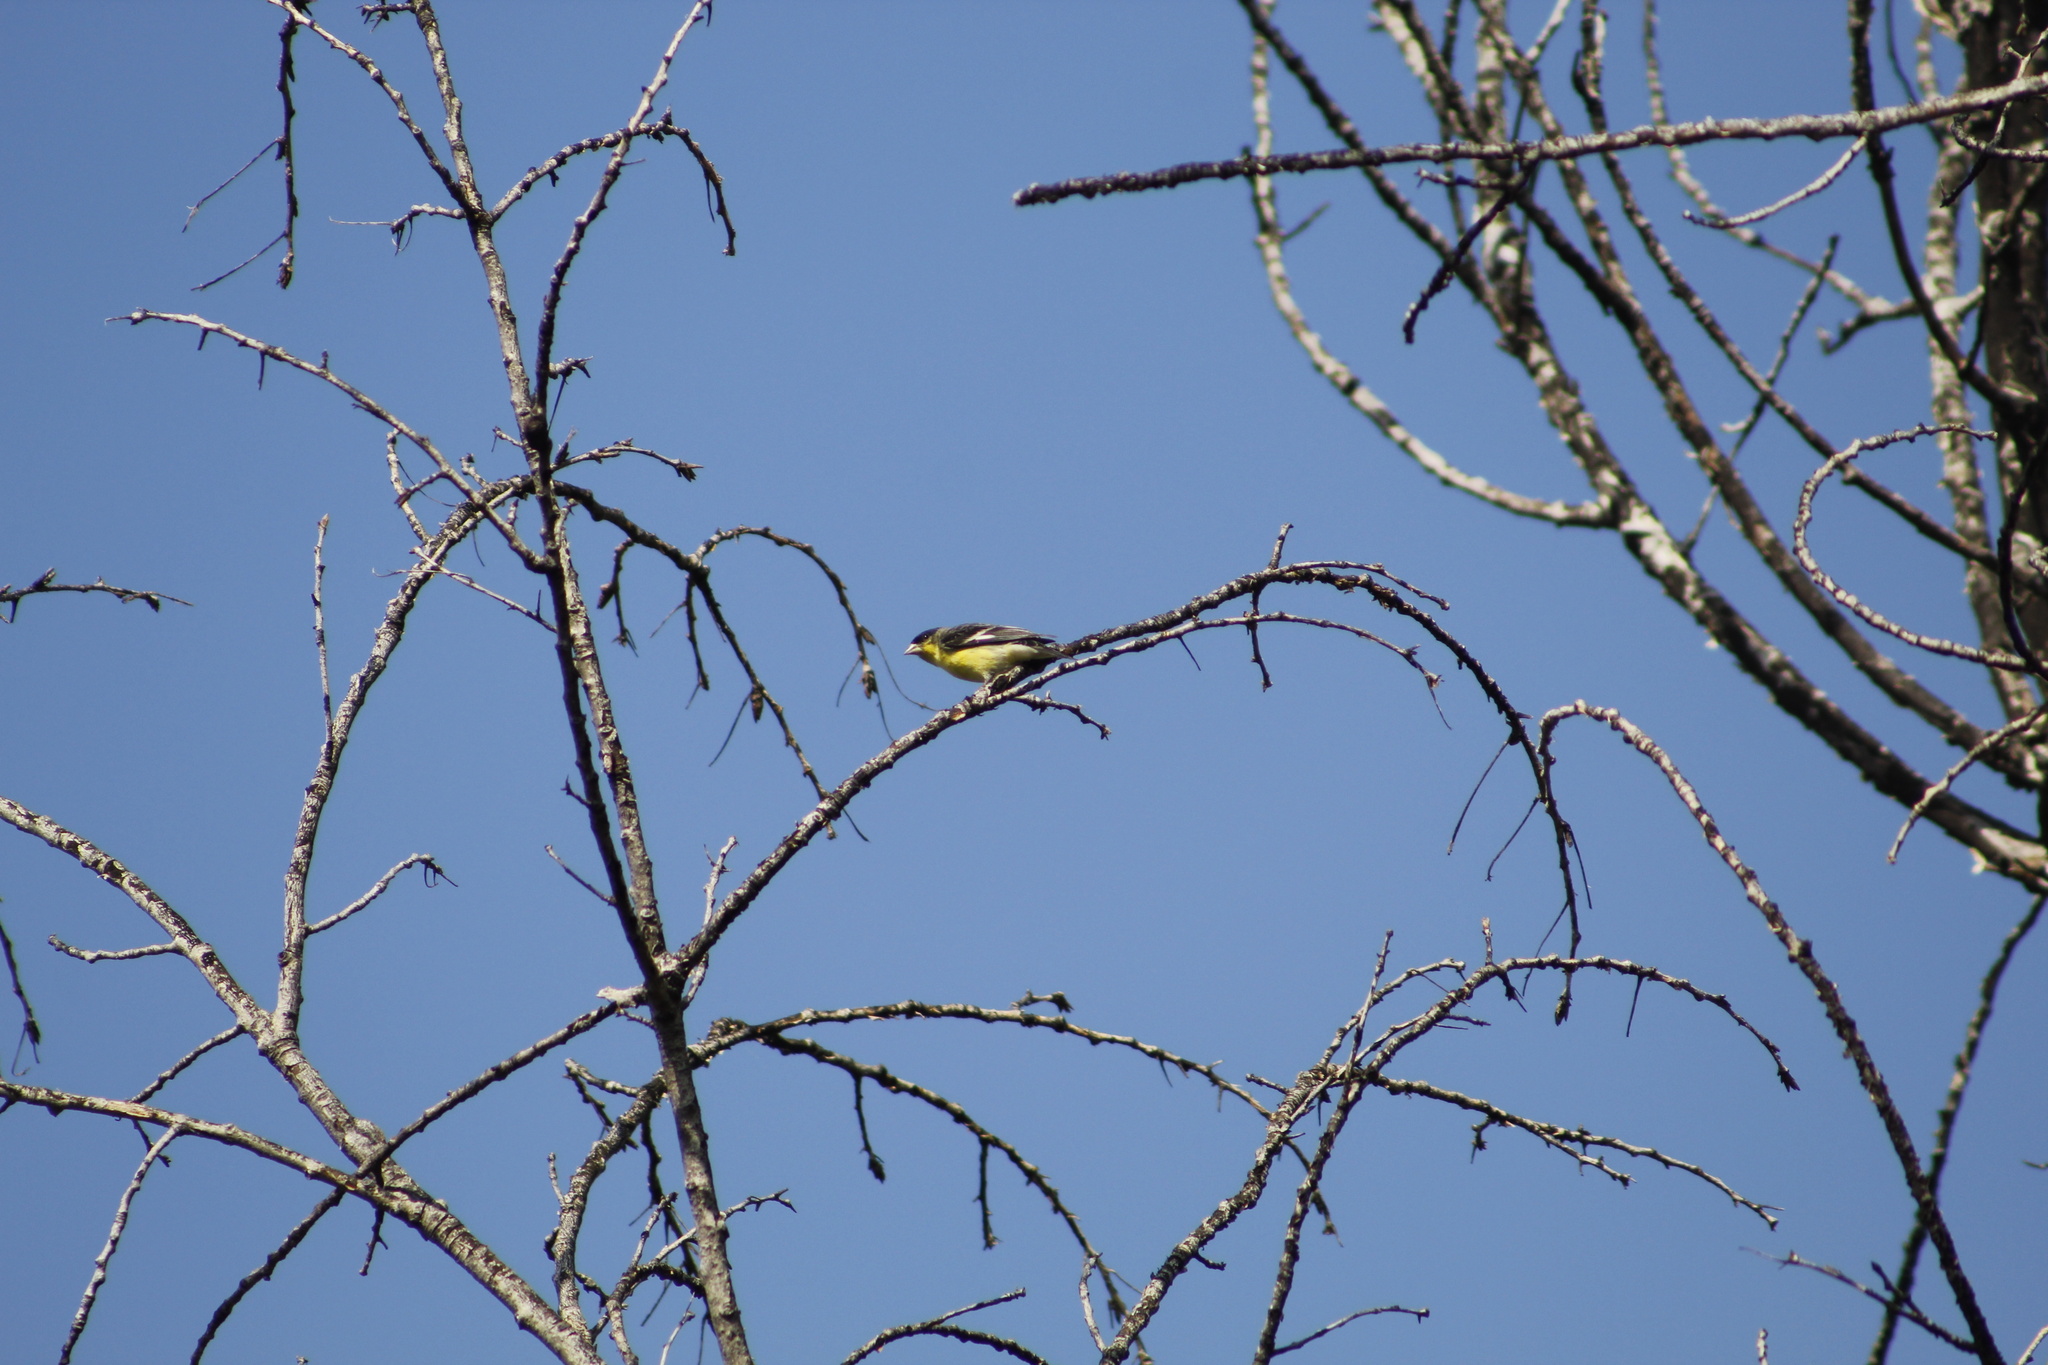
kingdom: Animalia
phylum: Chordata
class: Aves
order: Passeriformes
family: Fringillidae
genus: Spinus
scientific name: Spinus psaltria
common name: Lesser goldfinch
